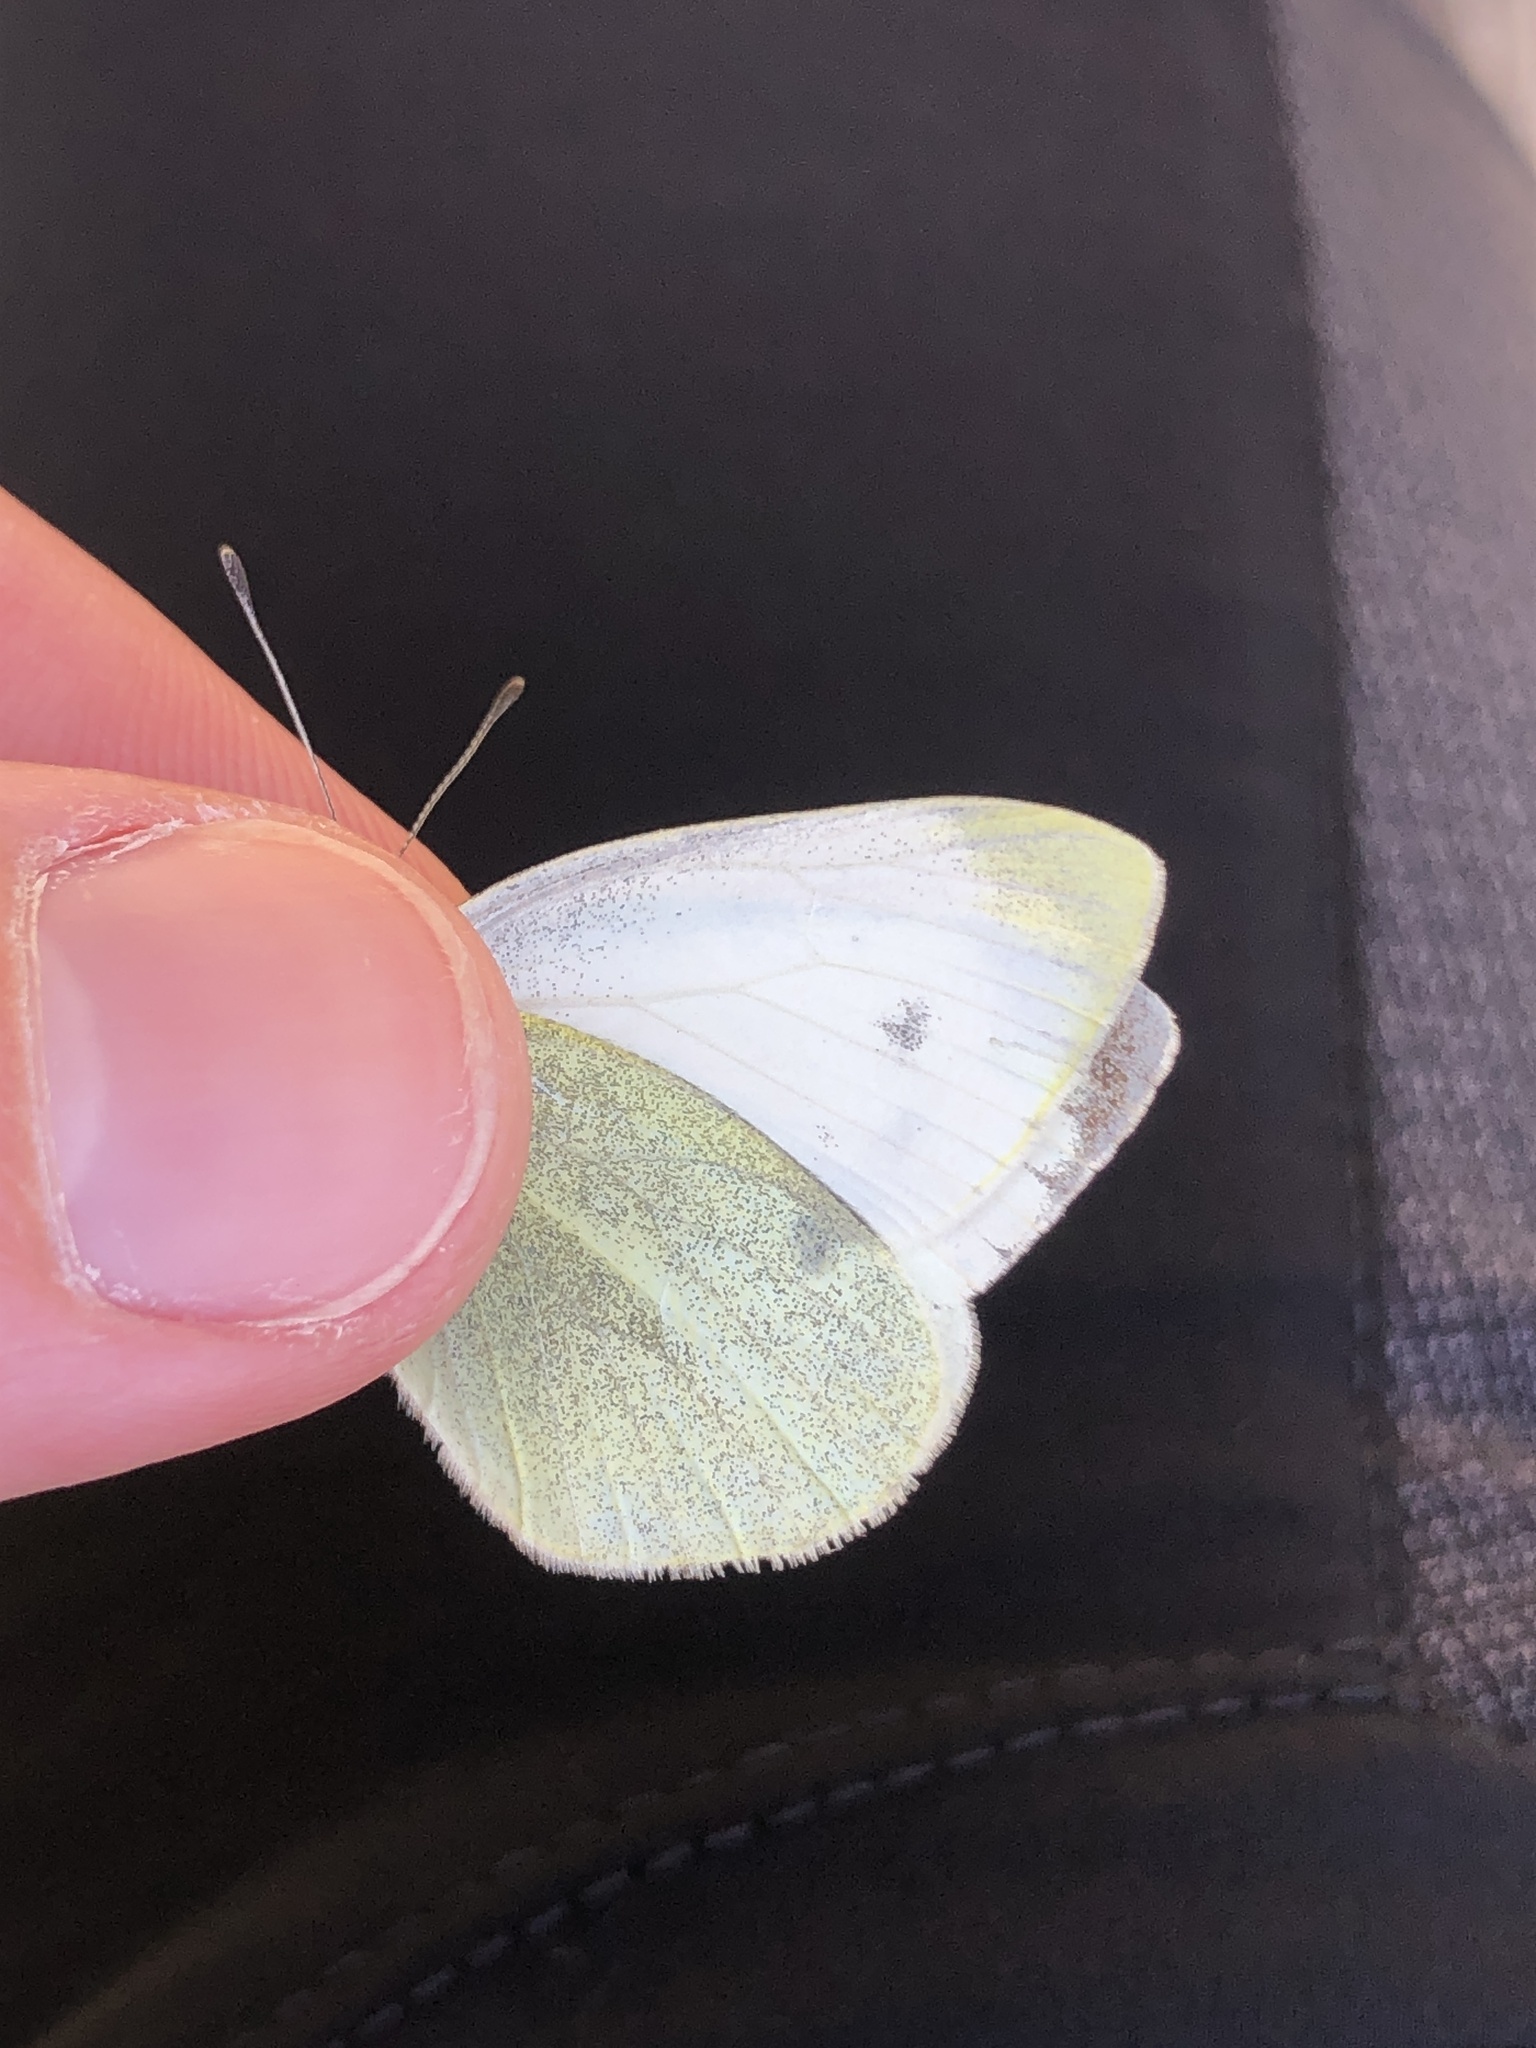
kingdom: Animalia
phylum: Arthropoda
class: Insecta
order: Lepidoptera
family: Pieridae
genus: Pieris
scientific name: Pieris mannii
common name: Southern small white
